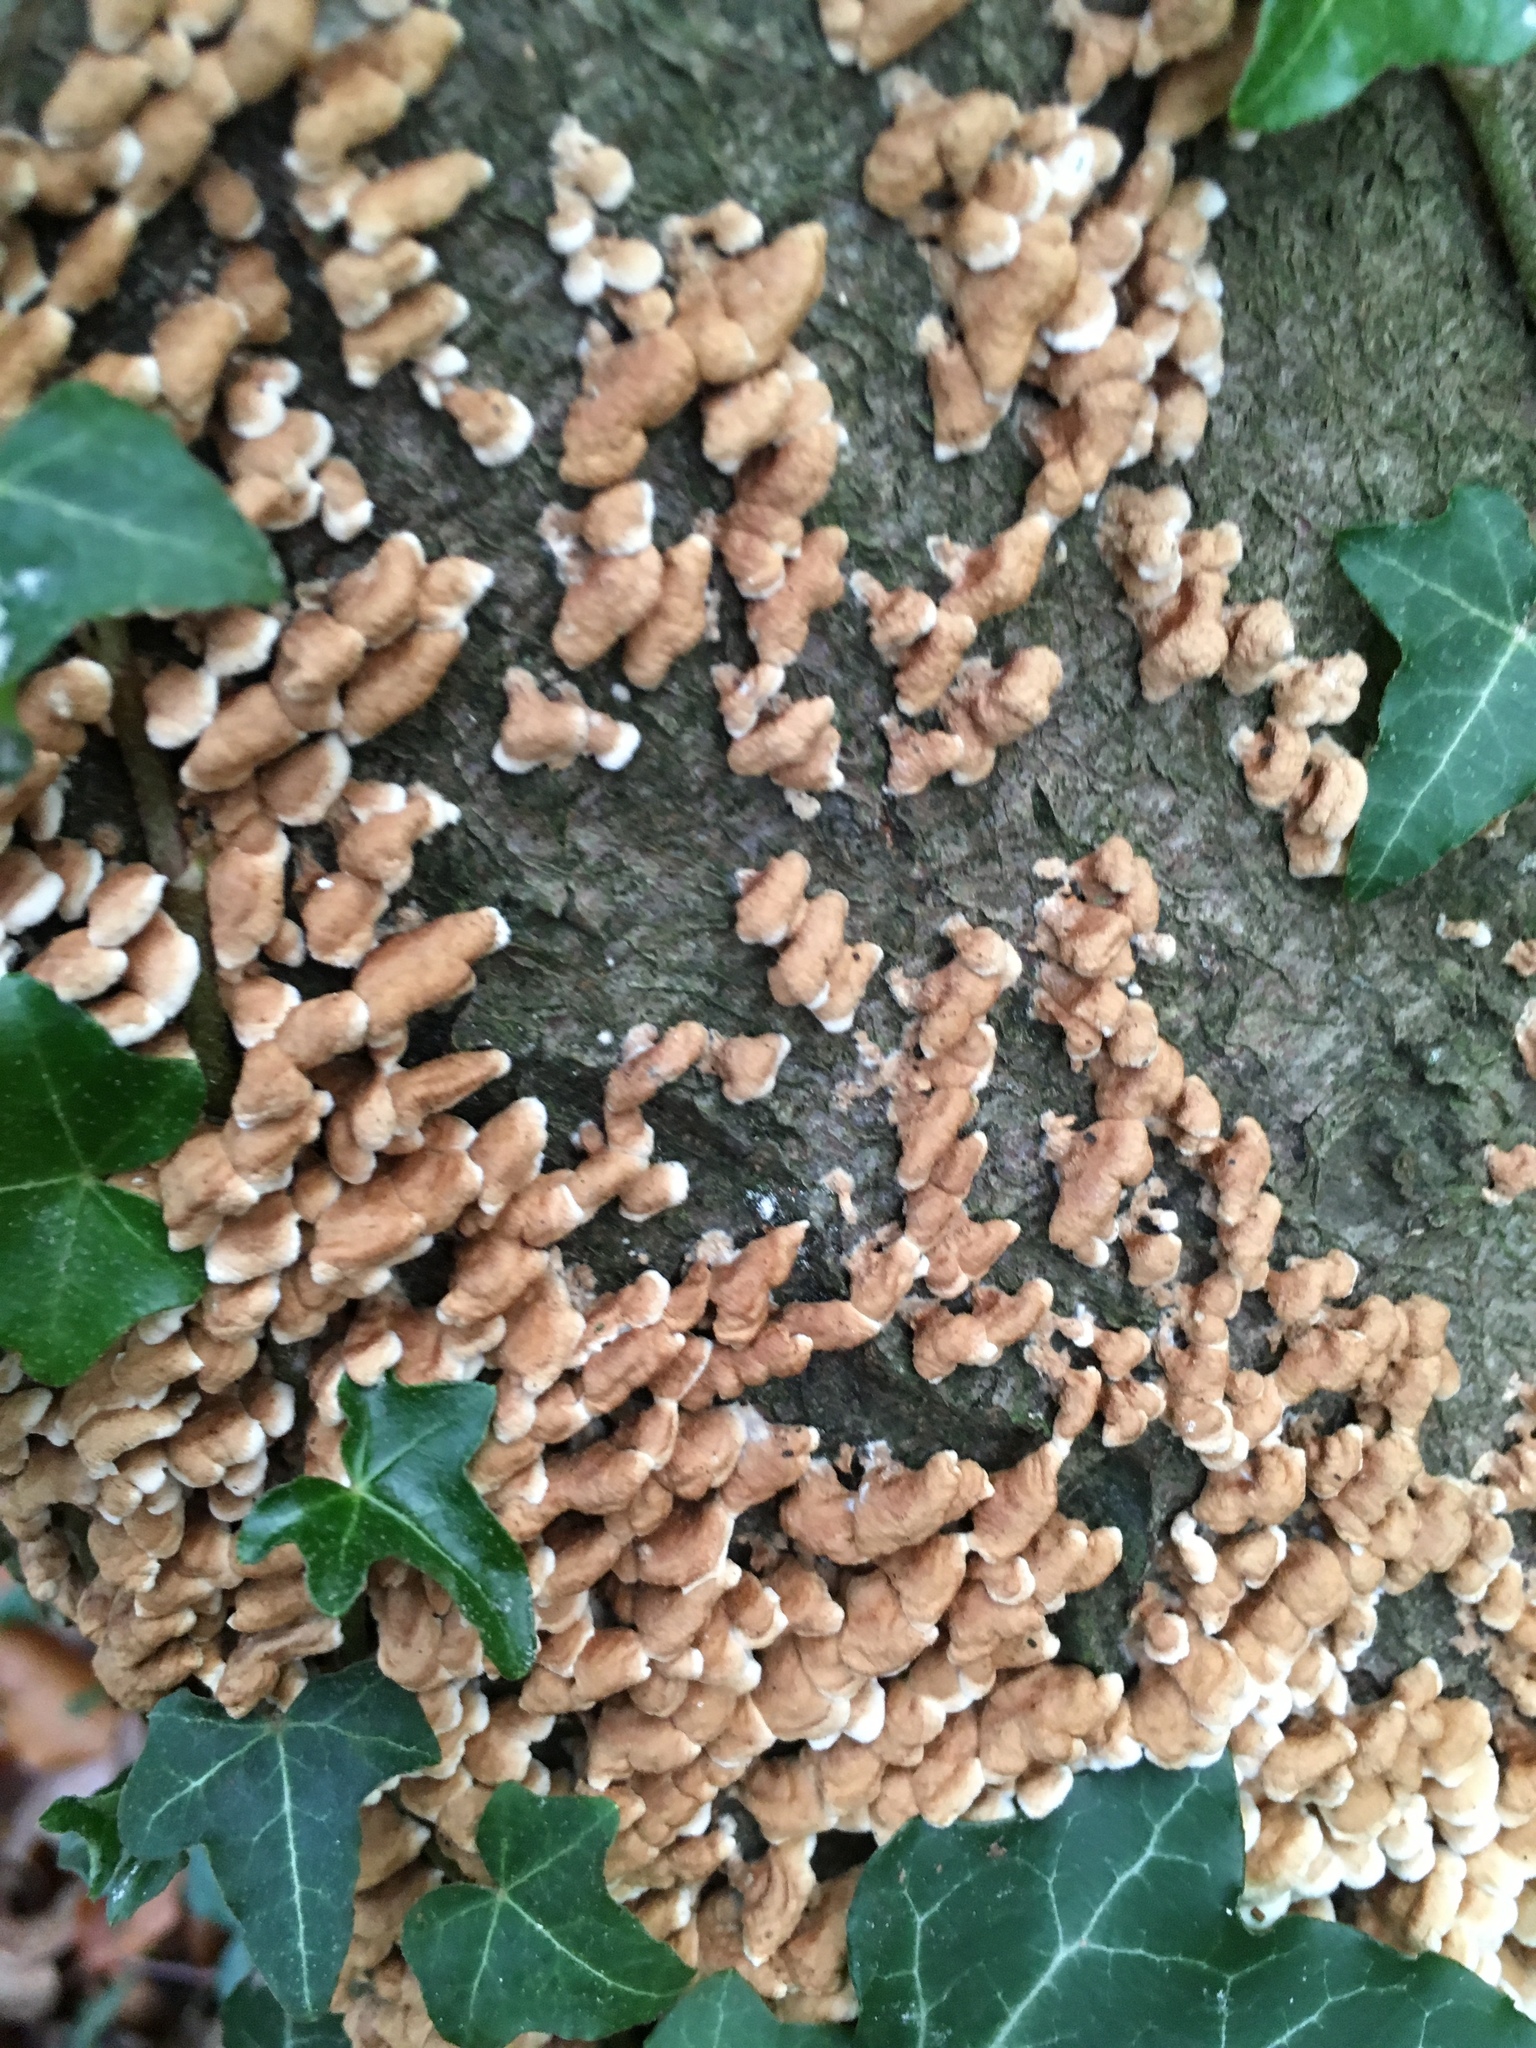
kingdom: Fungi
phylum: Basidiomycota
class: Agaricomycetes
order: Amylocorticiales
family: Amylocorticiaceae
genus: Plicaturopsis
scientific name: Plicaturopsis crispa
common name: Crimped gill
